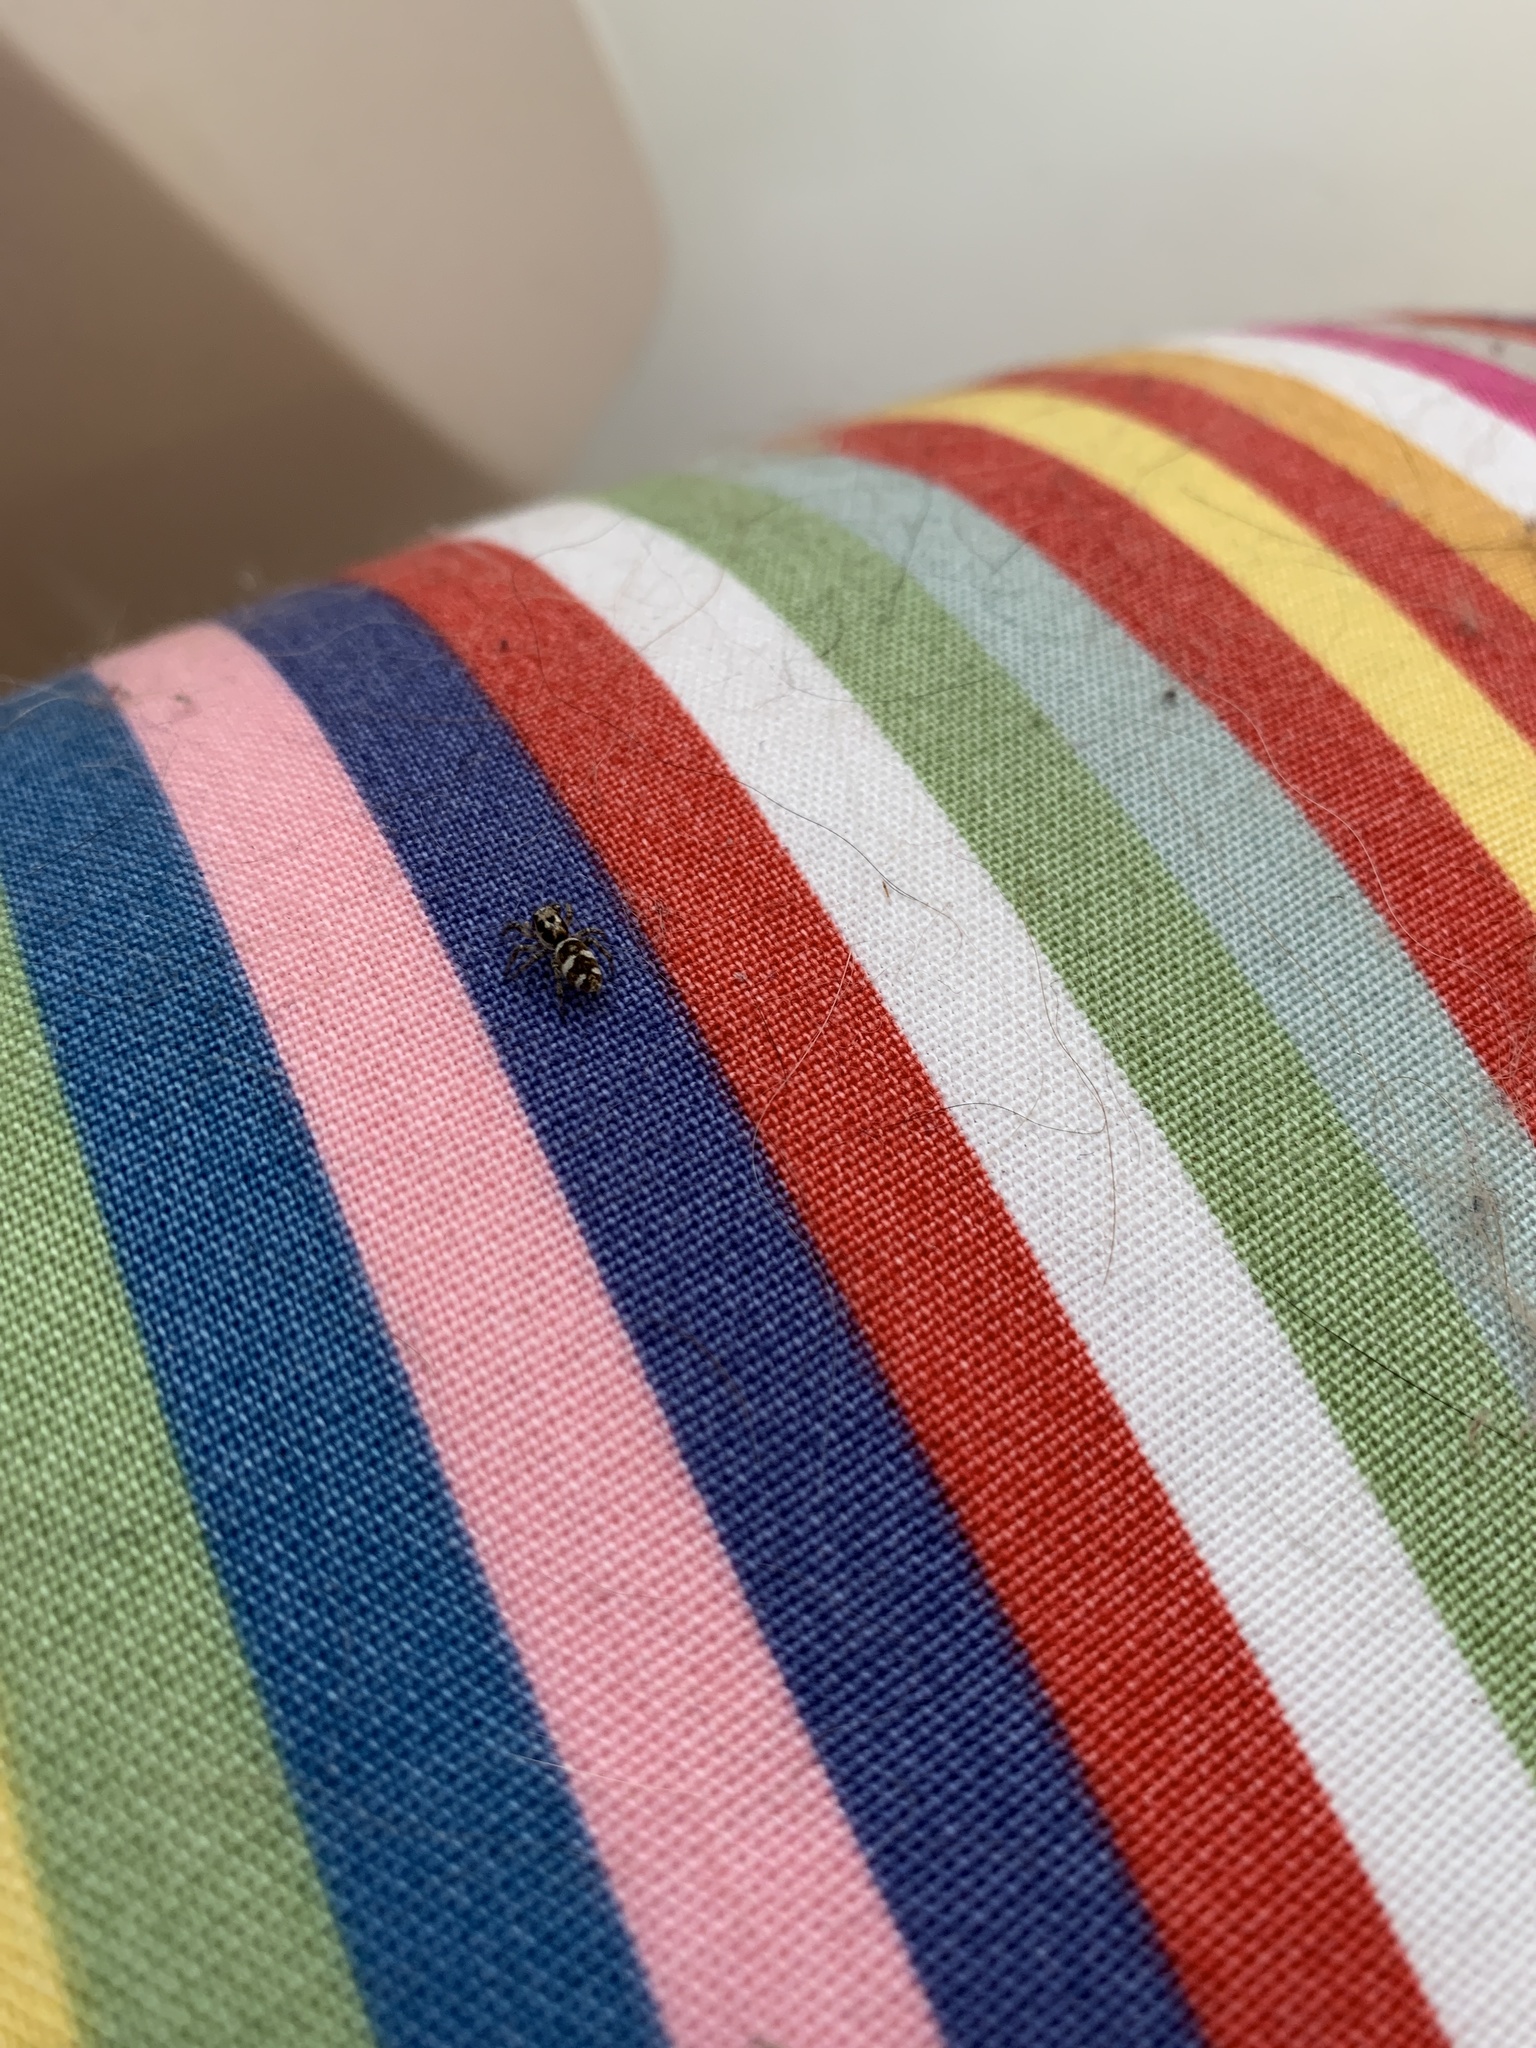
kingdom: Animalia
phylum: Arthropoda
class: Arachnida
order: Araneae
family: Salticidae
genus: Salticus
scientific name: Salticus scenicus
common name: Zebra jumper
